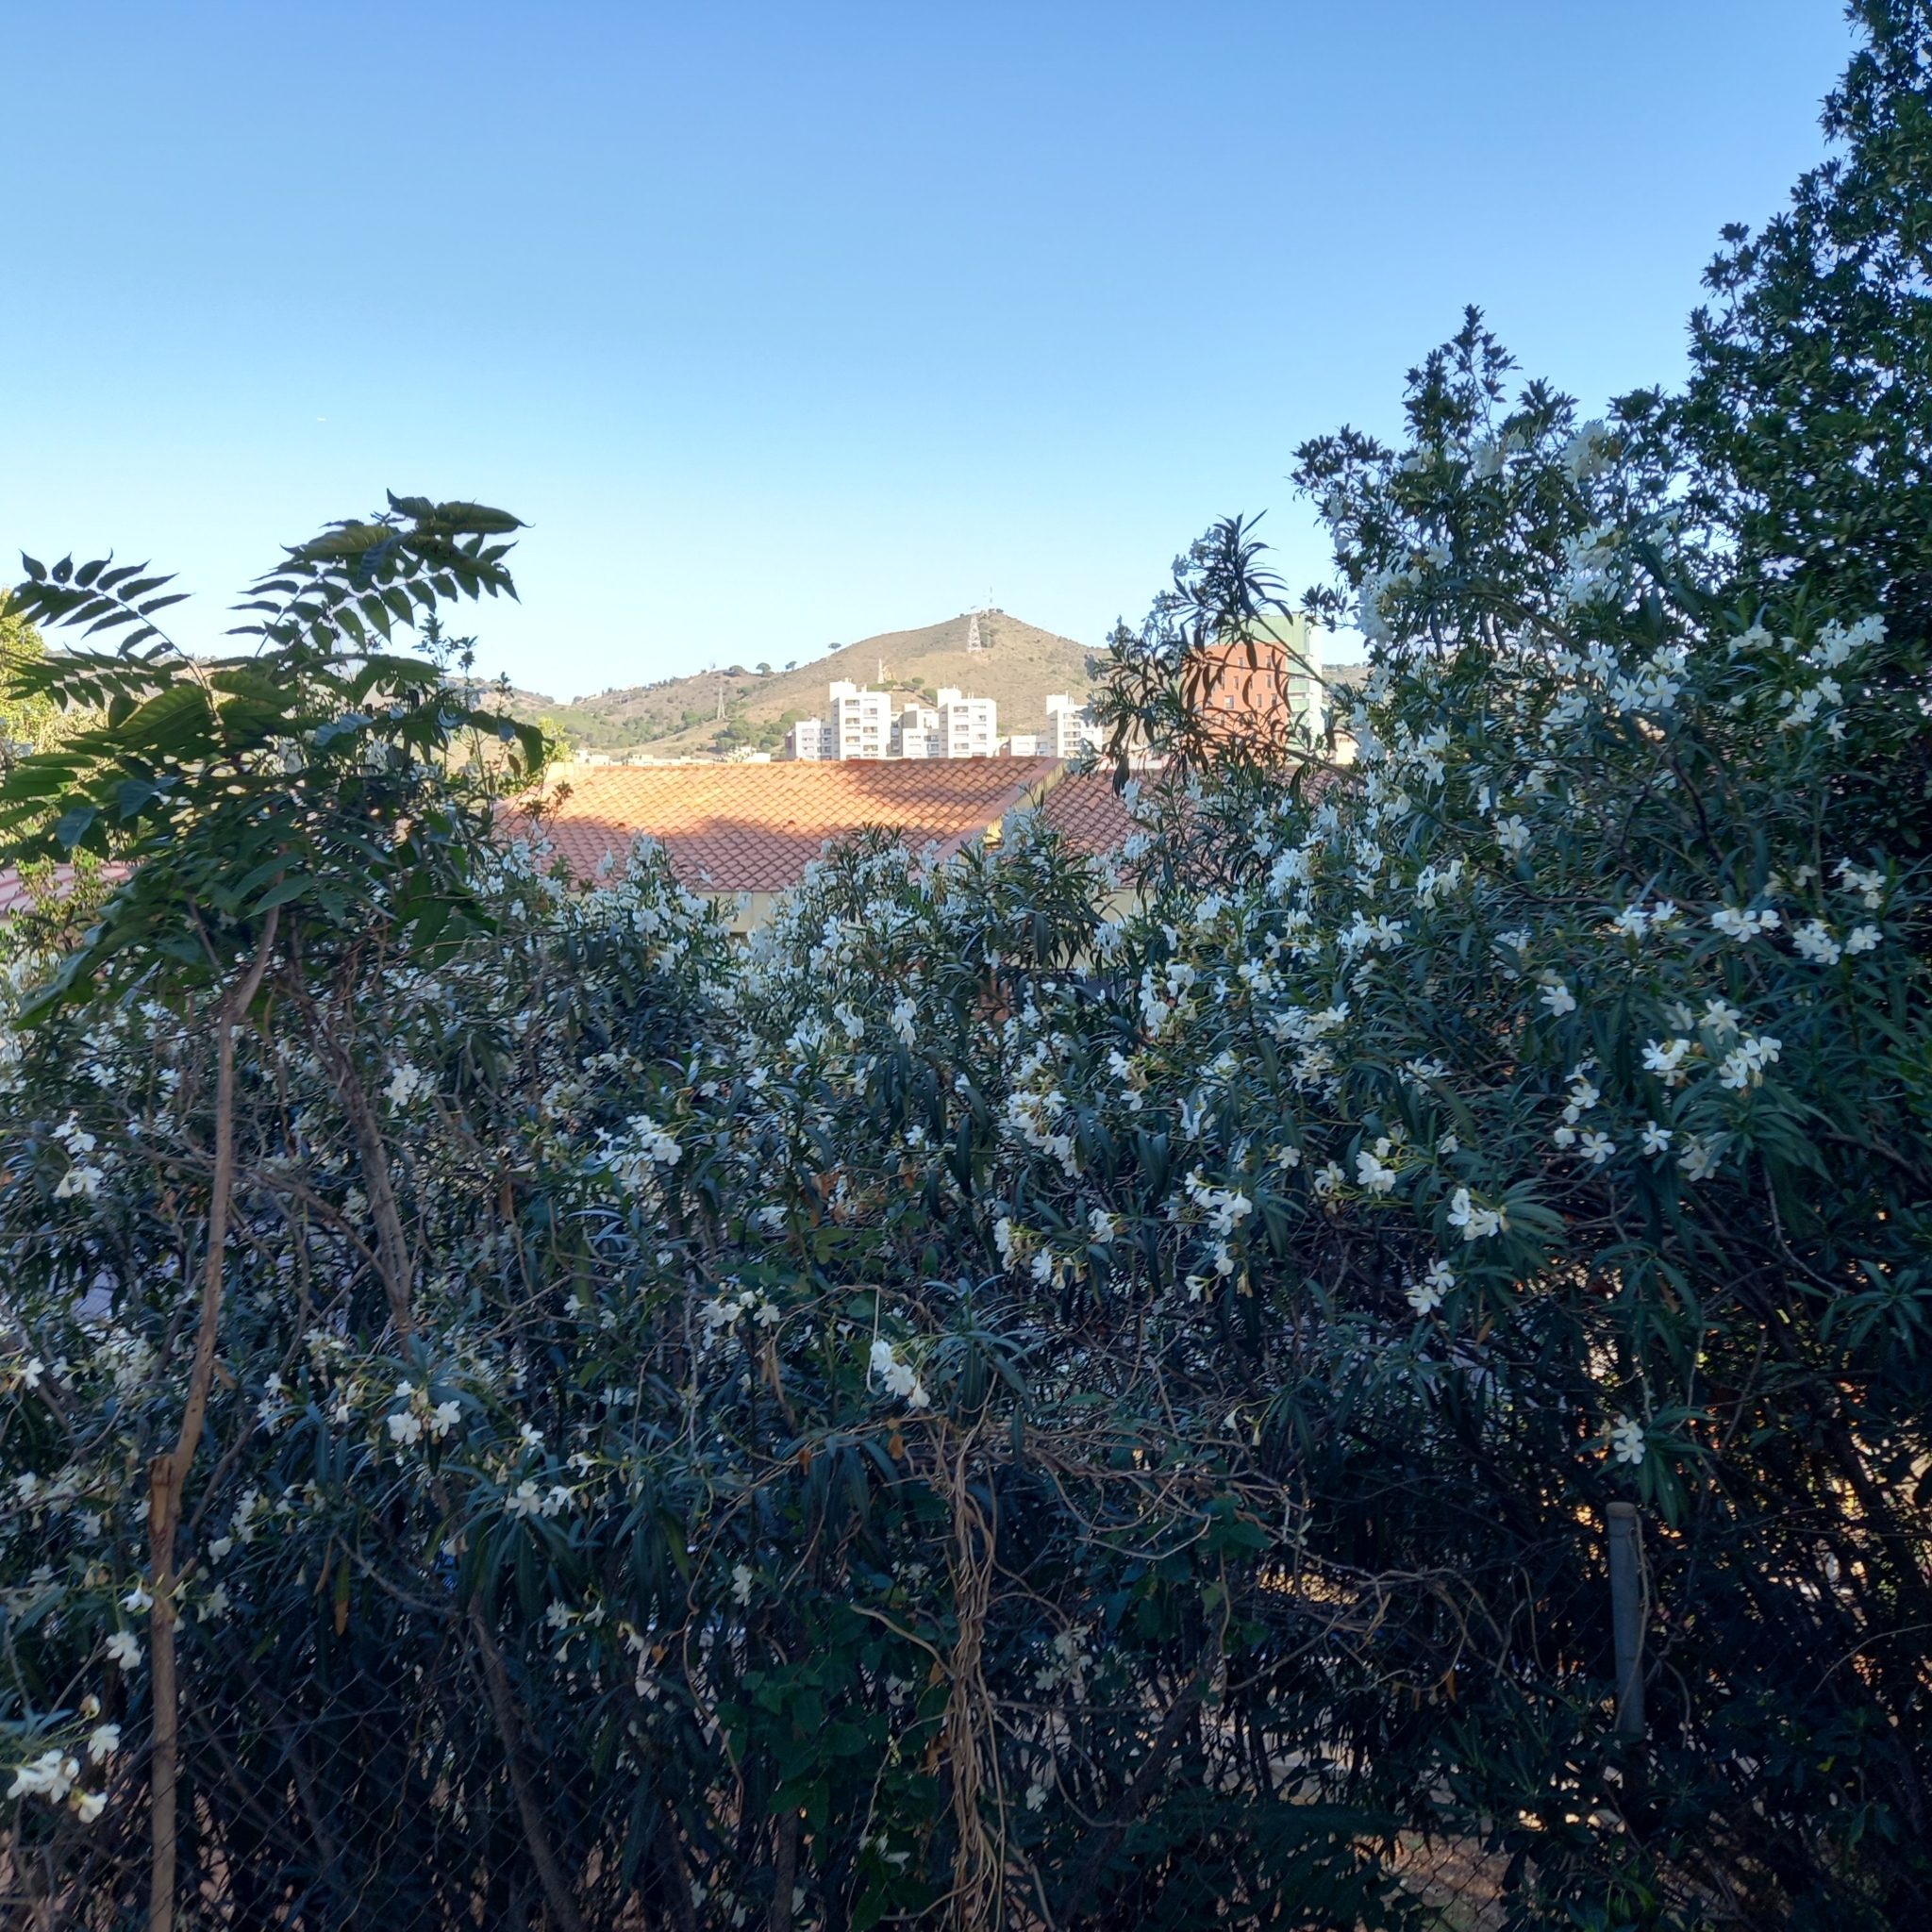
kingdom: Plantae
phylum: Tracheophyta
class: Magnoliopsida
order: Sapindales
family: Simaroubaceae
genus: Ailanthus
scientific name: Ailanthus altissima
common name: Tree-of-heaven
